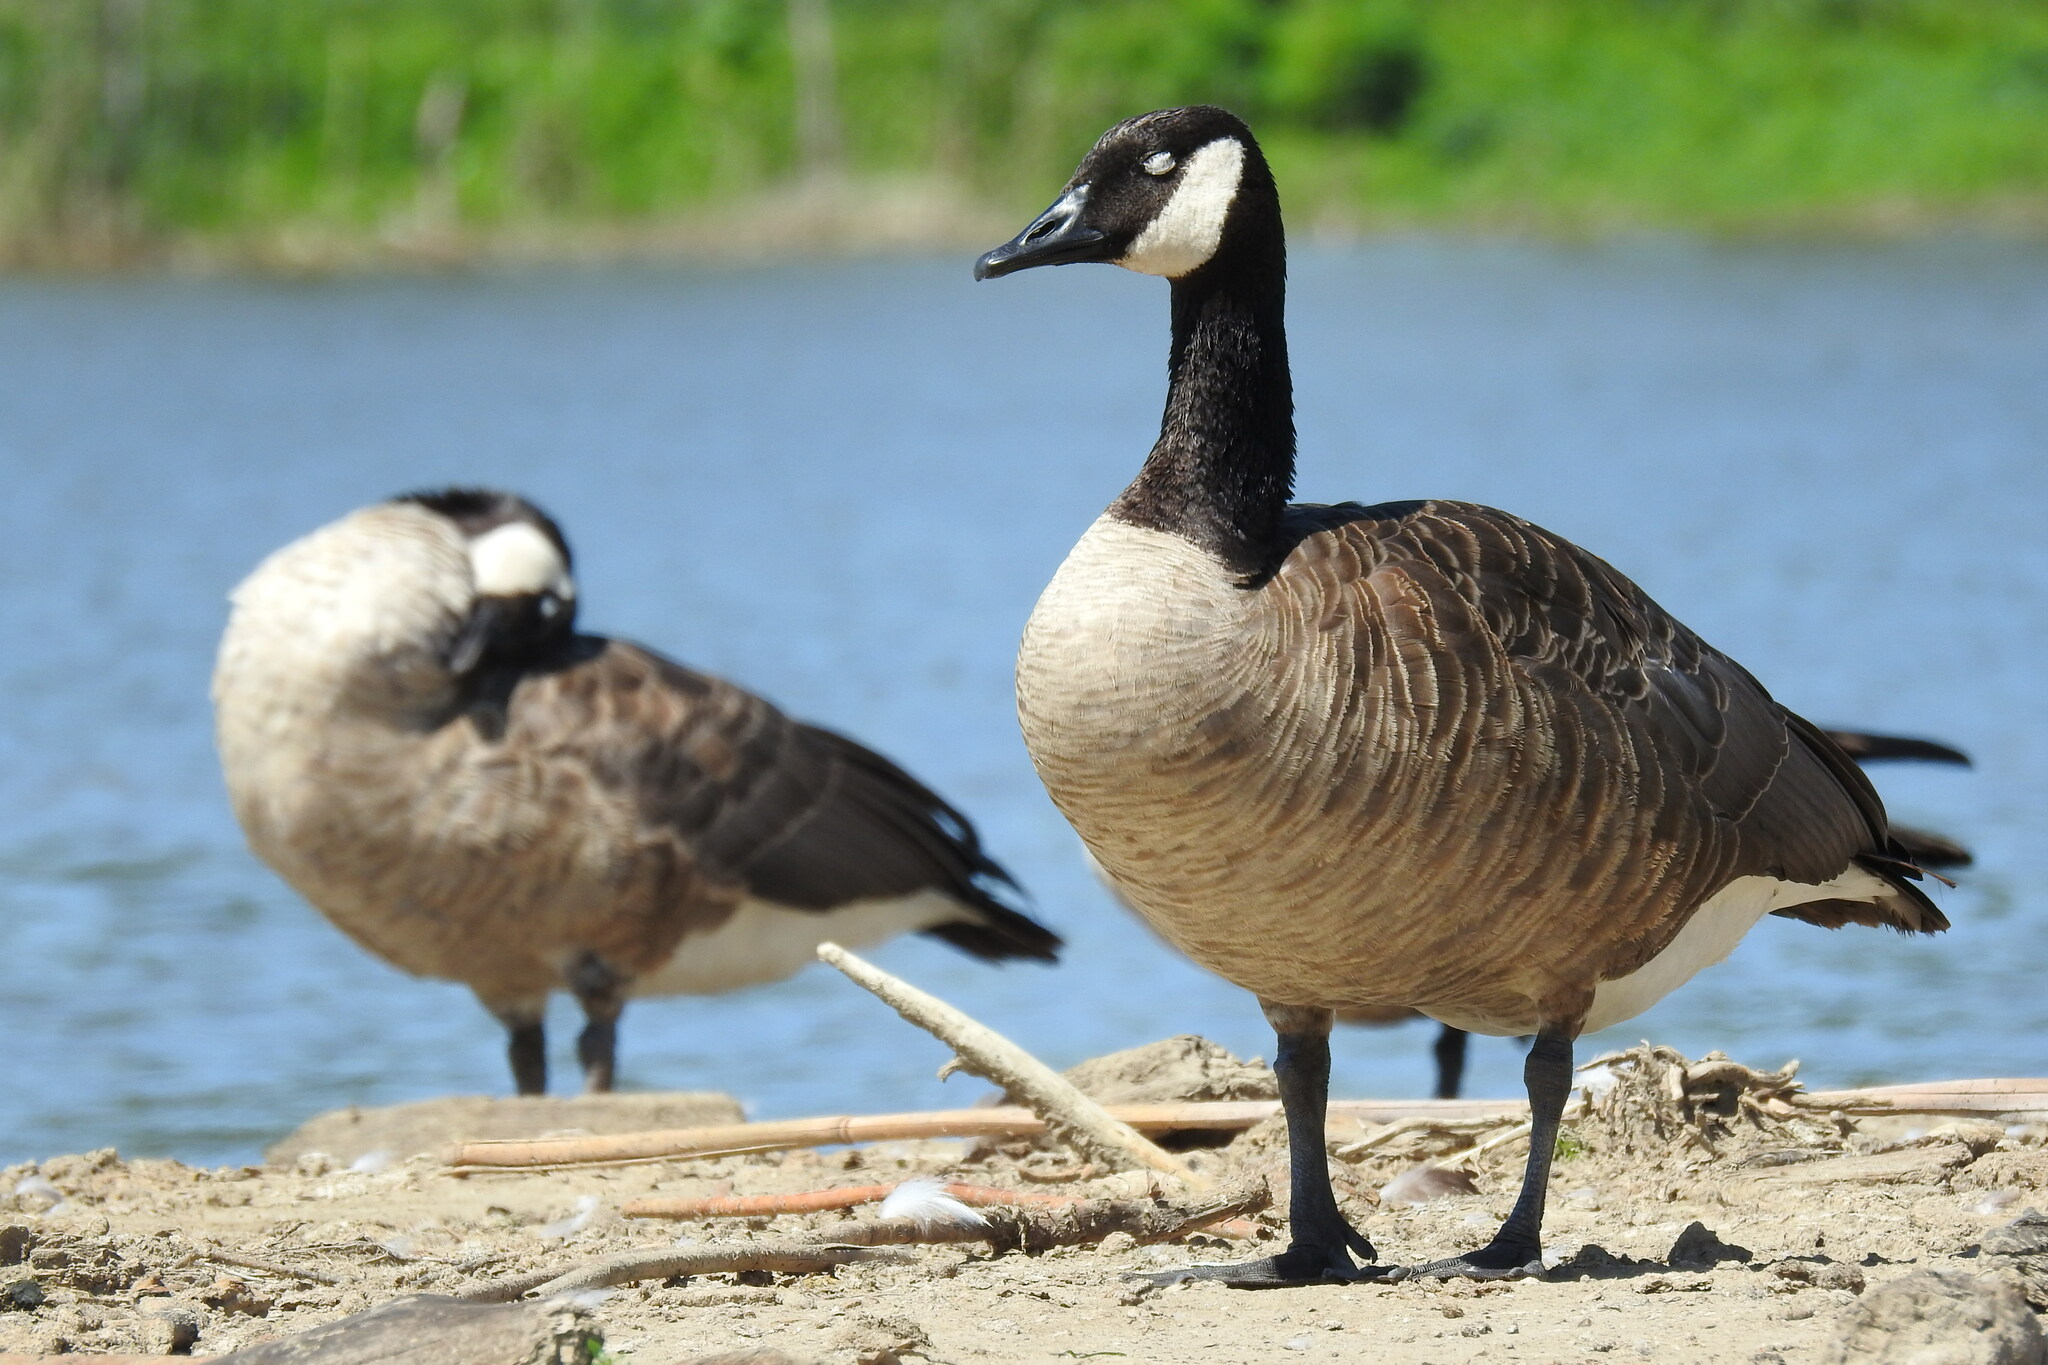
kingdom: Animalia
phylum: Chordata
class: Aves
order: Anseriformes
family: Anatidae
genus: Branta
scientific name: Branta canadensis
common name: Canada goose
